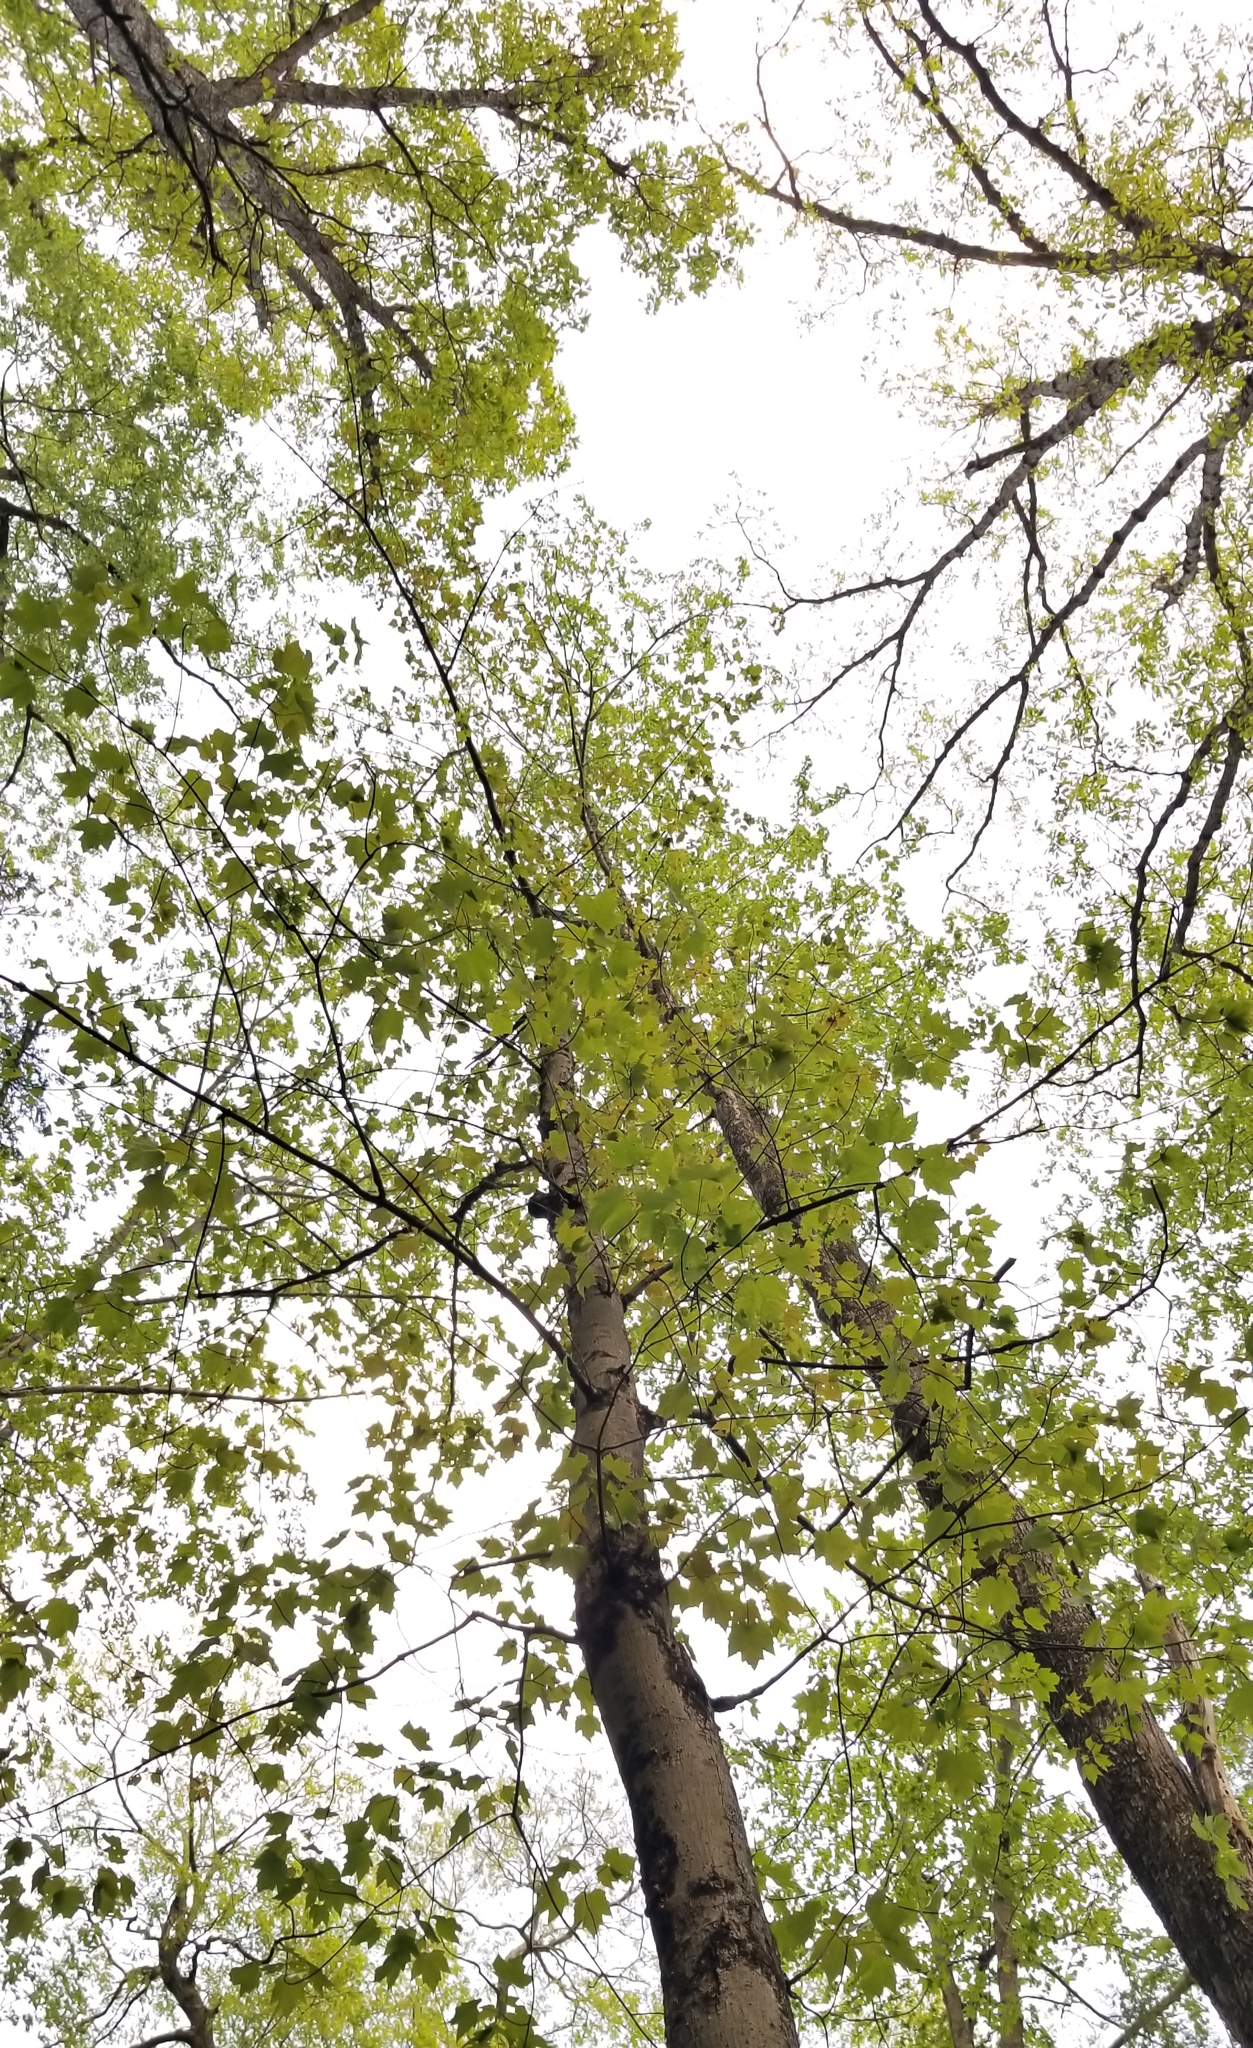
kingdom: Plantae
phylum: Tracheophyta
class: Magnoliopsida
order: Sapindales
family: Sapindaceae
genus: Acer
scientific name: Acer rubrum
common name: Red maple
